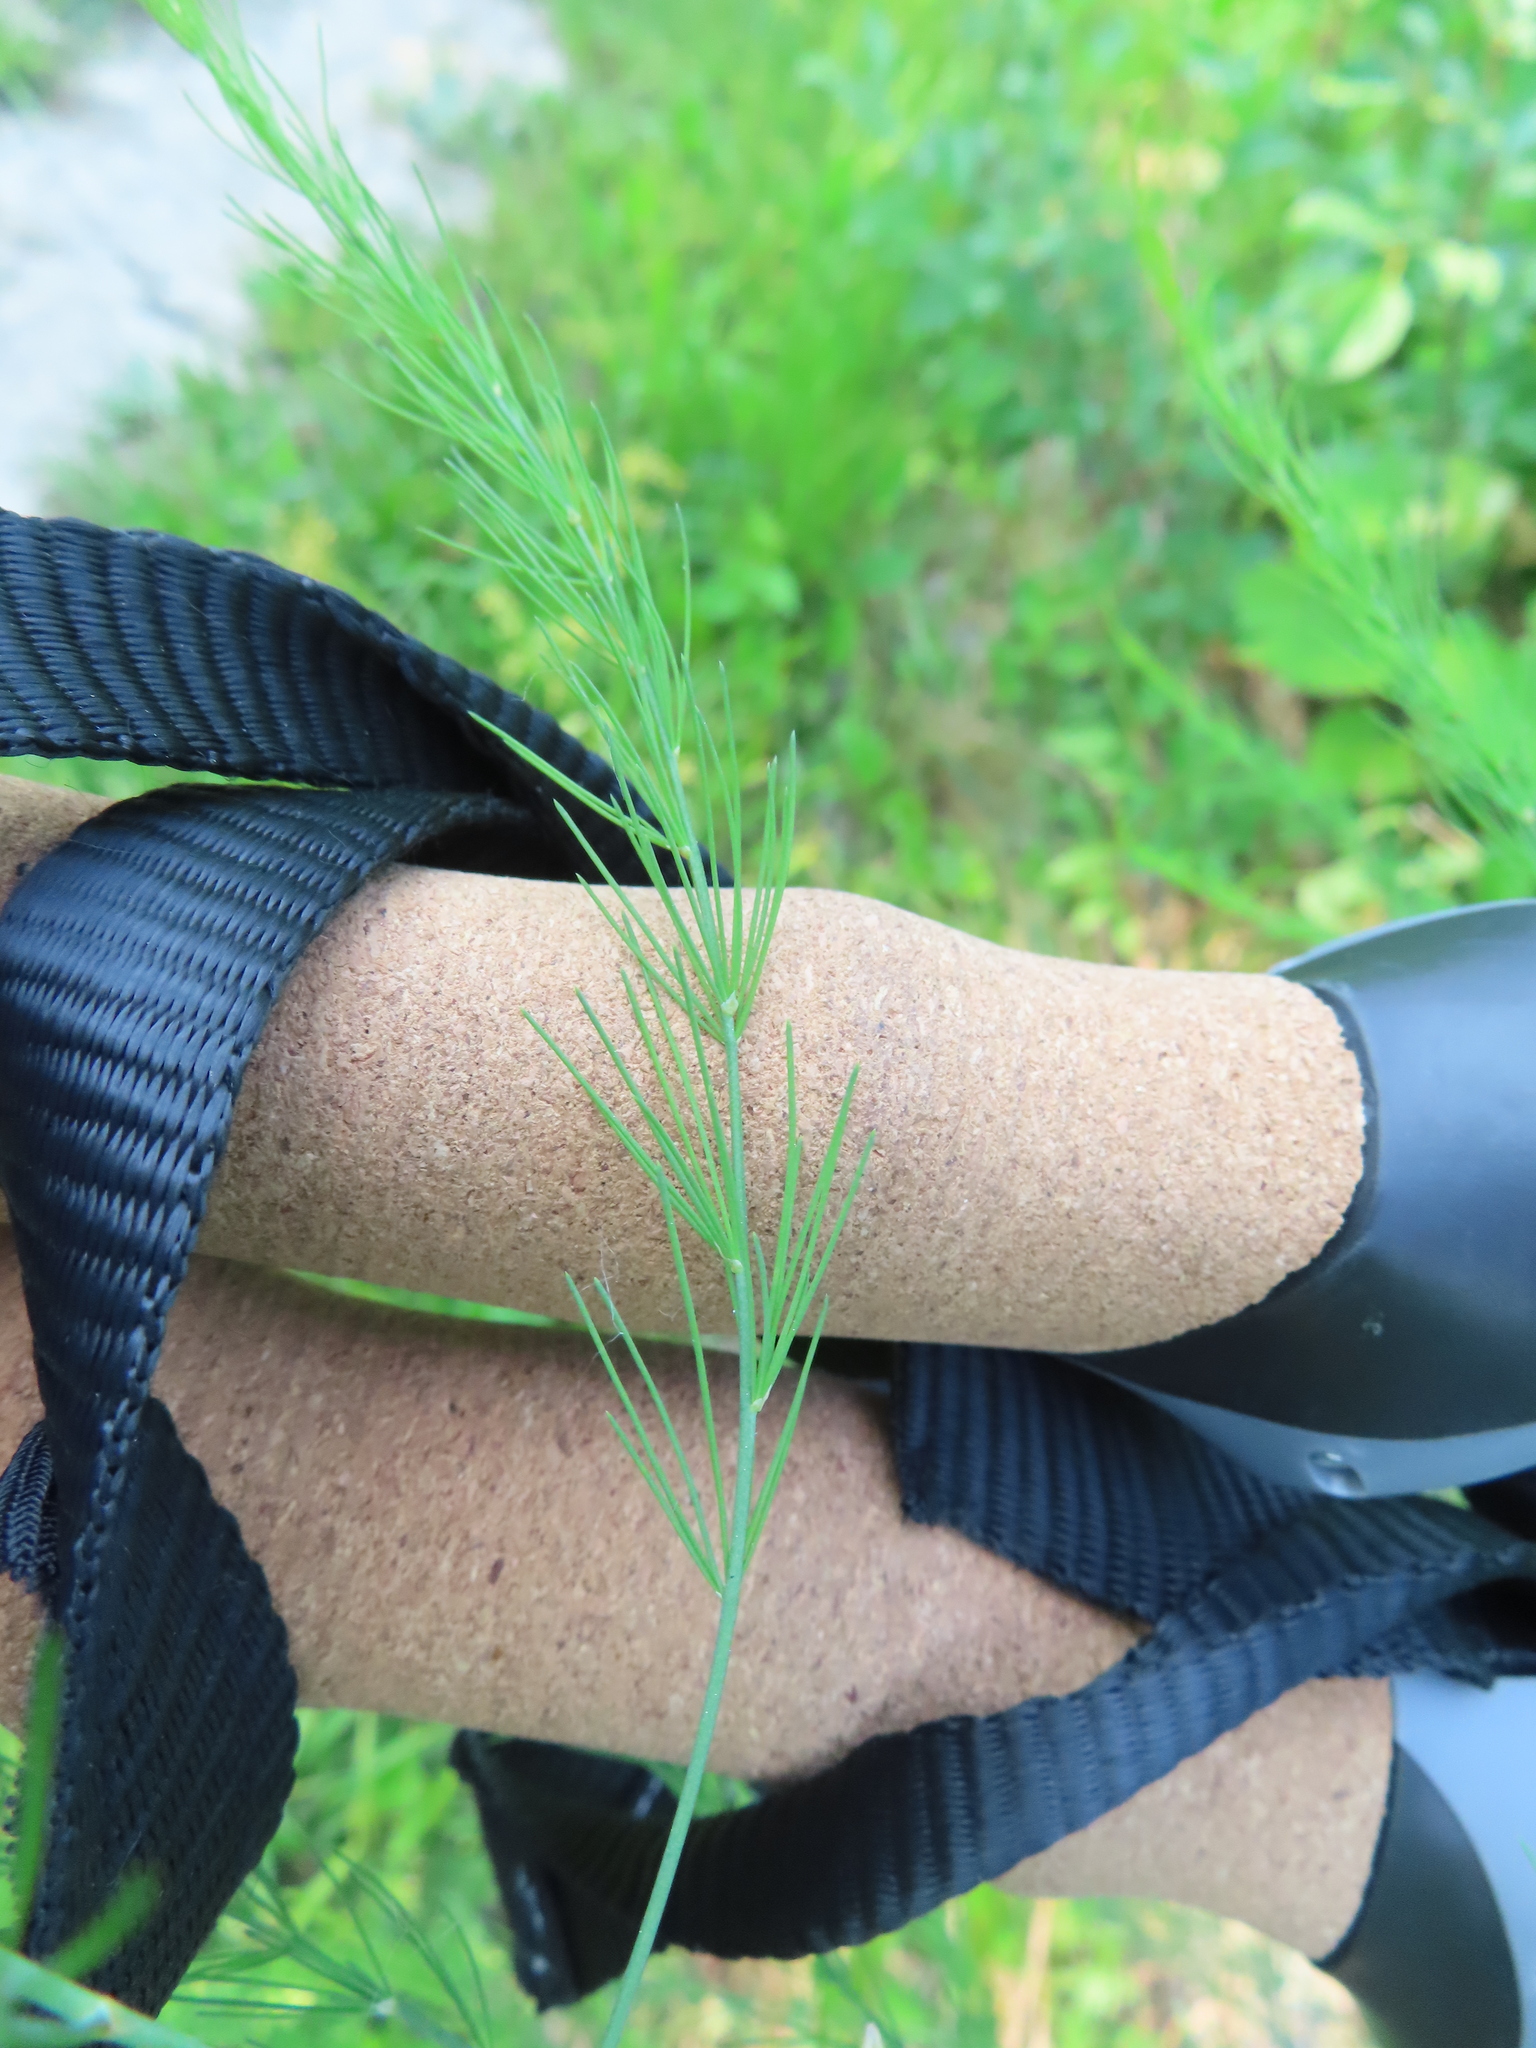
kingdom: Plantae
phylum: Tracheophyta
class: Liliopsida
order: Asparagales
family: Asparagaceae
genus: Asparagus
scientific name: Asparagus officinalis
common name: Garden asparagus
